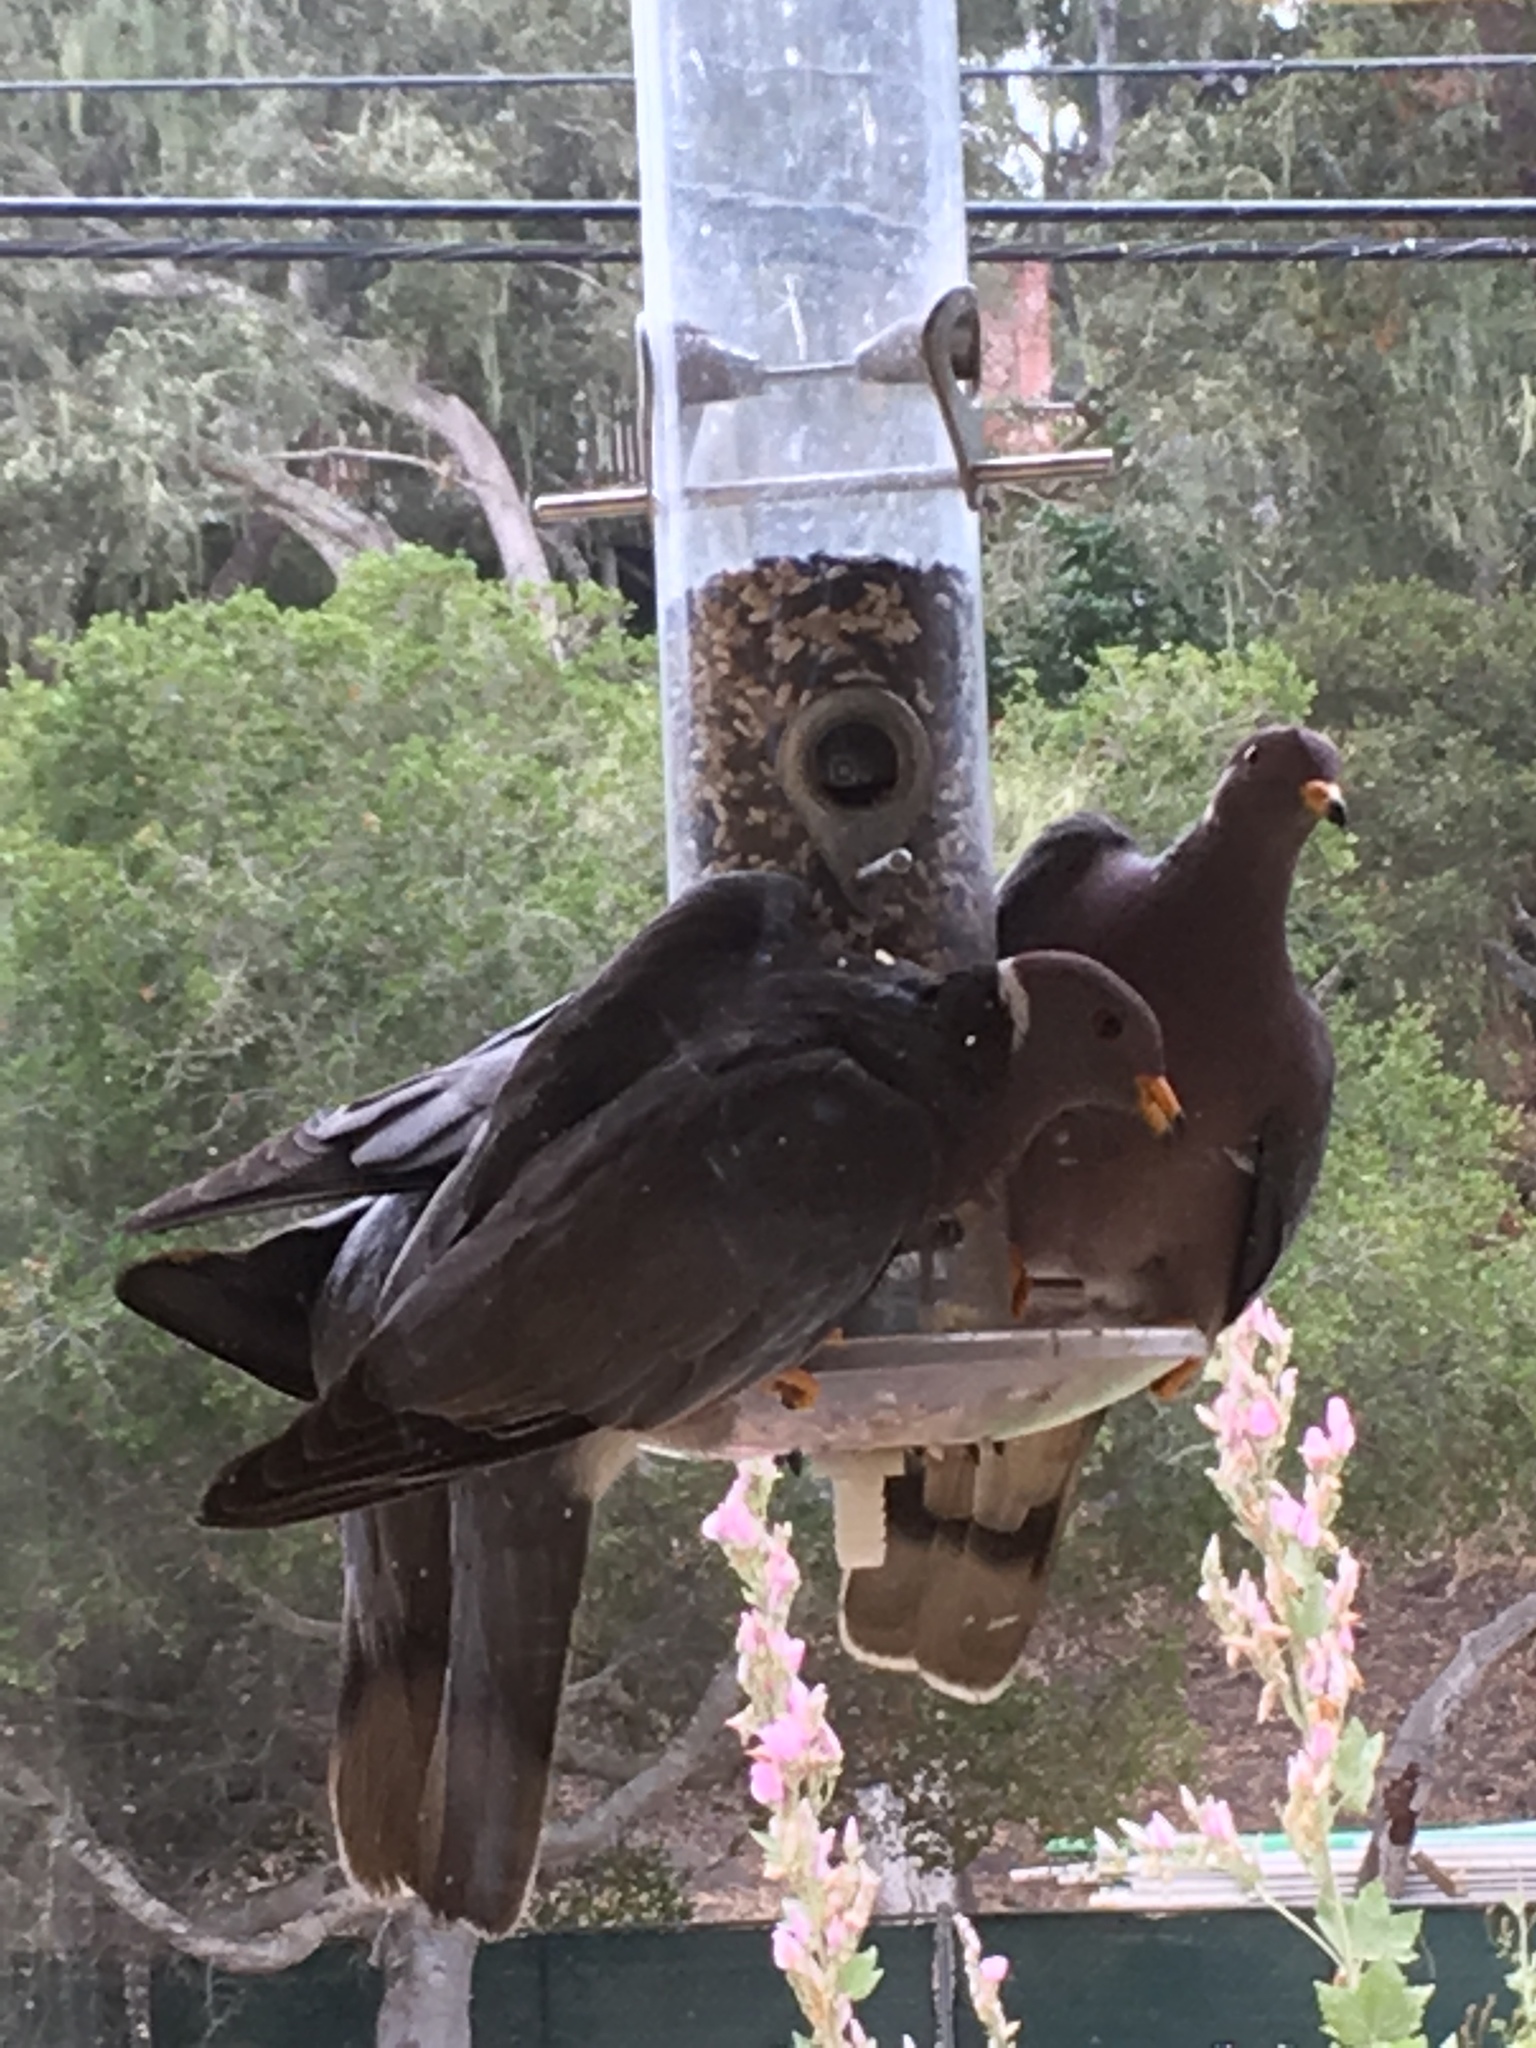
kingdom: Animalia
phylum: Chordata
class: Aves
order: Columbiformes
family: Columbidae
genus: Patagioenas
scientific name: Patagioenas fasciata
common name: Band-tailed pigeon
